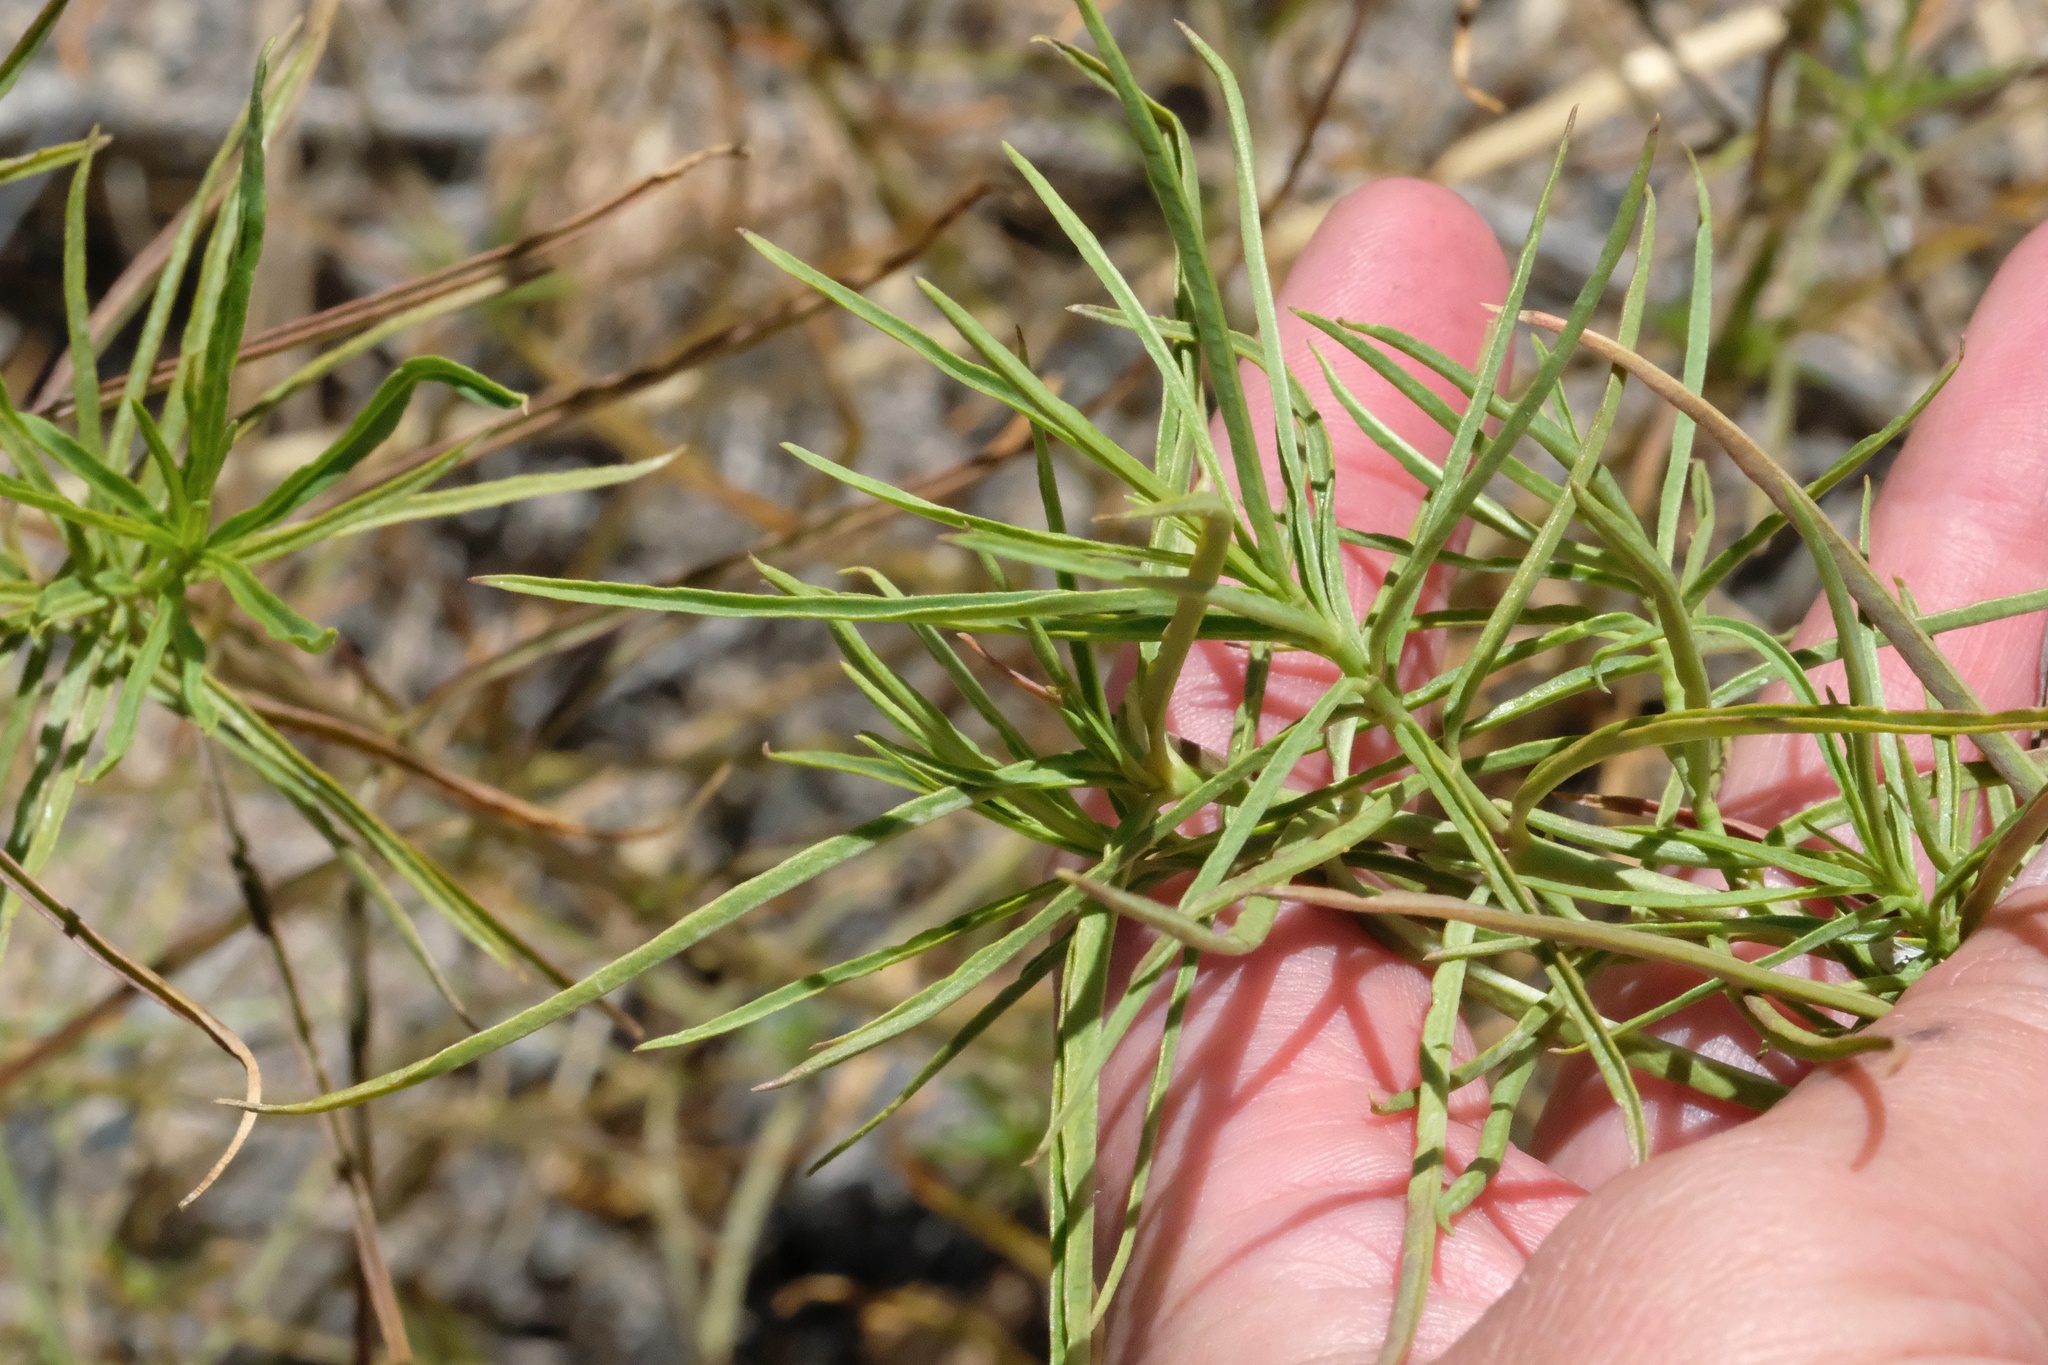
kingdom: Plantae
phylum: Tracheophyta
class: Magnoliopsida
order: Gentianales
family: Apocynaceae
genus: Asclepias
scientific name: Asclepias fascicularis
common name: Mexican milkweed
